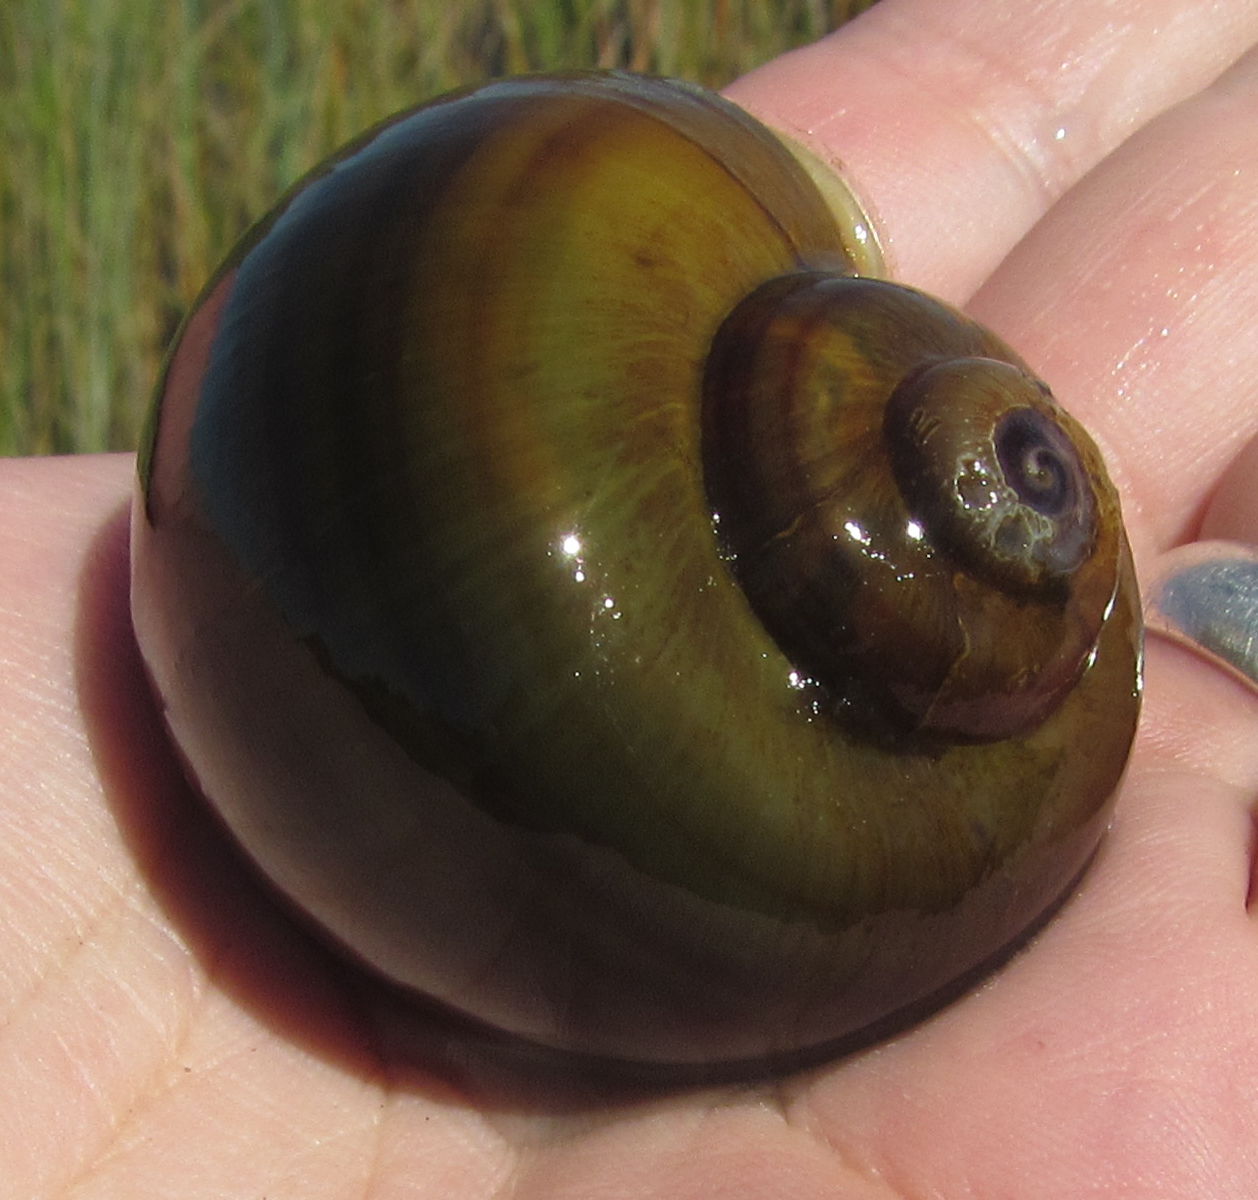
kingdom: Animalia
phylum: Mollusca
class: Gastropoda
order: Architaenioglossa
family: Ampullariidae
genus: Pila
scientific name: Pila occidentalis
